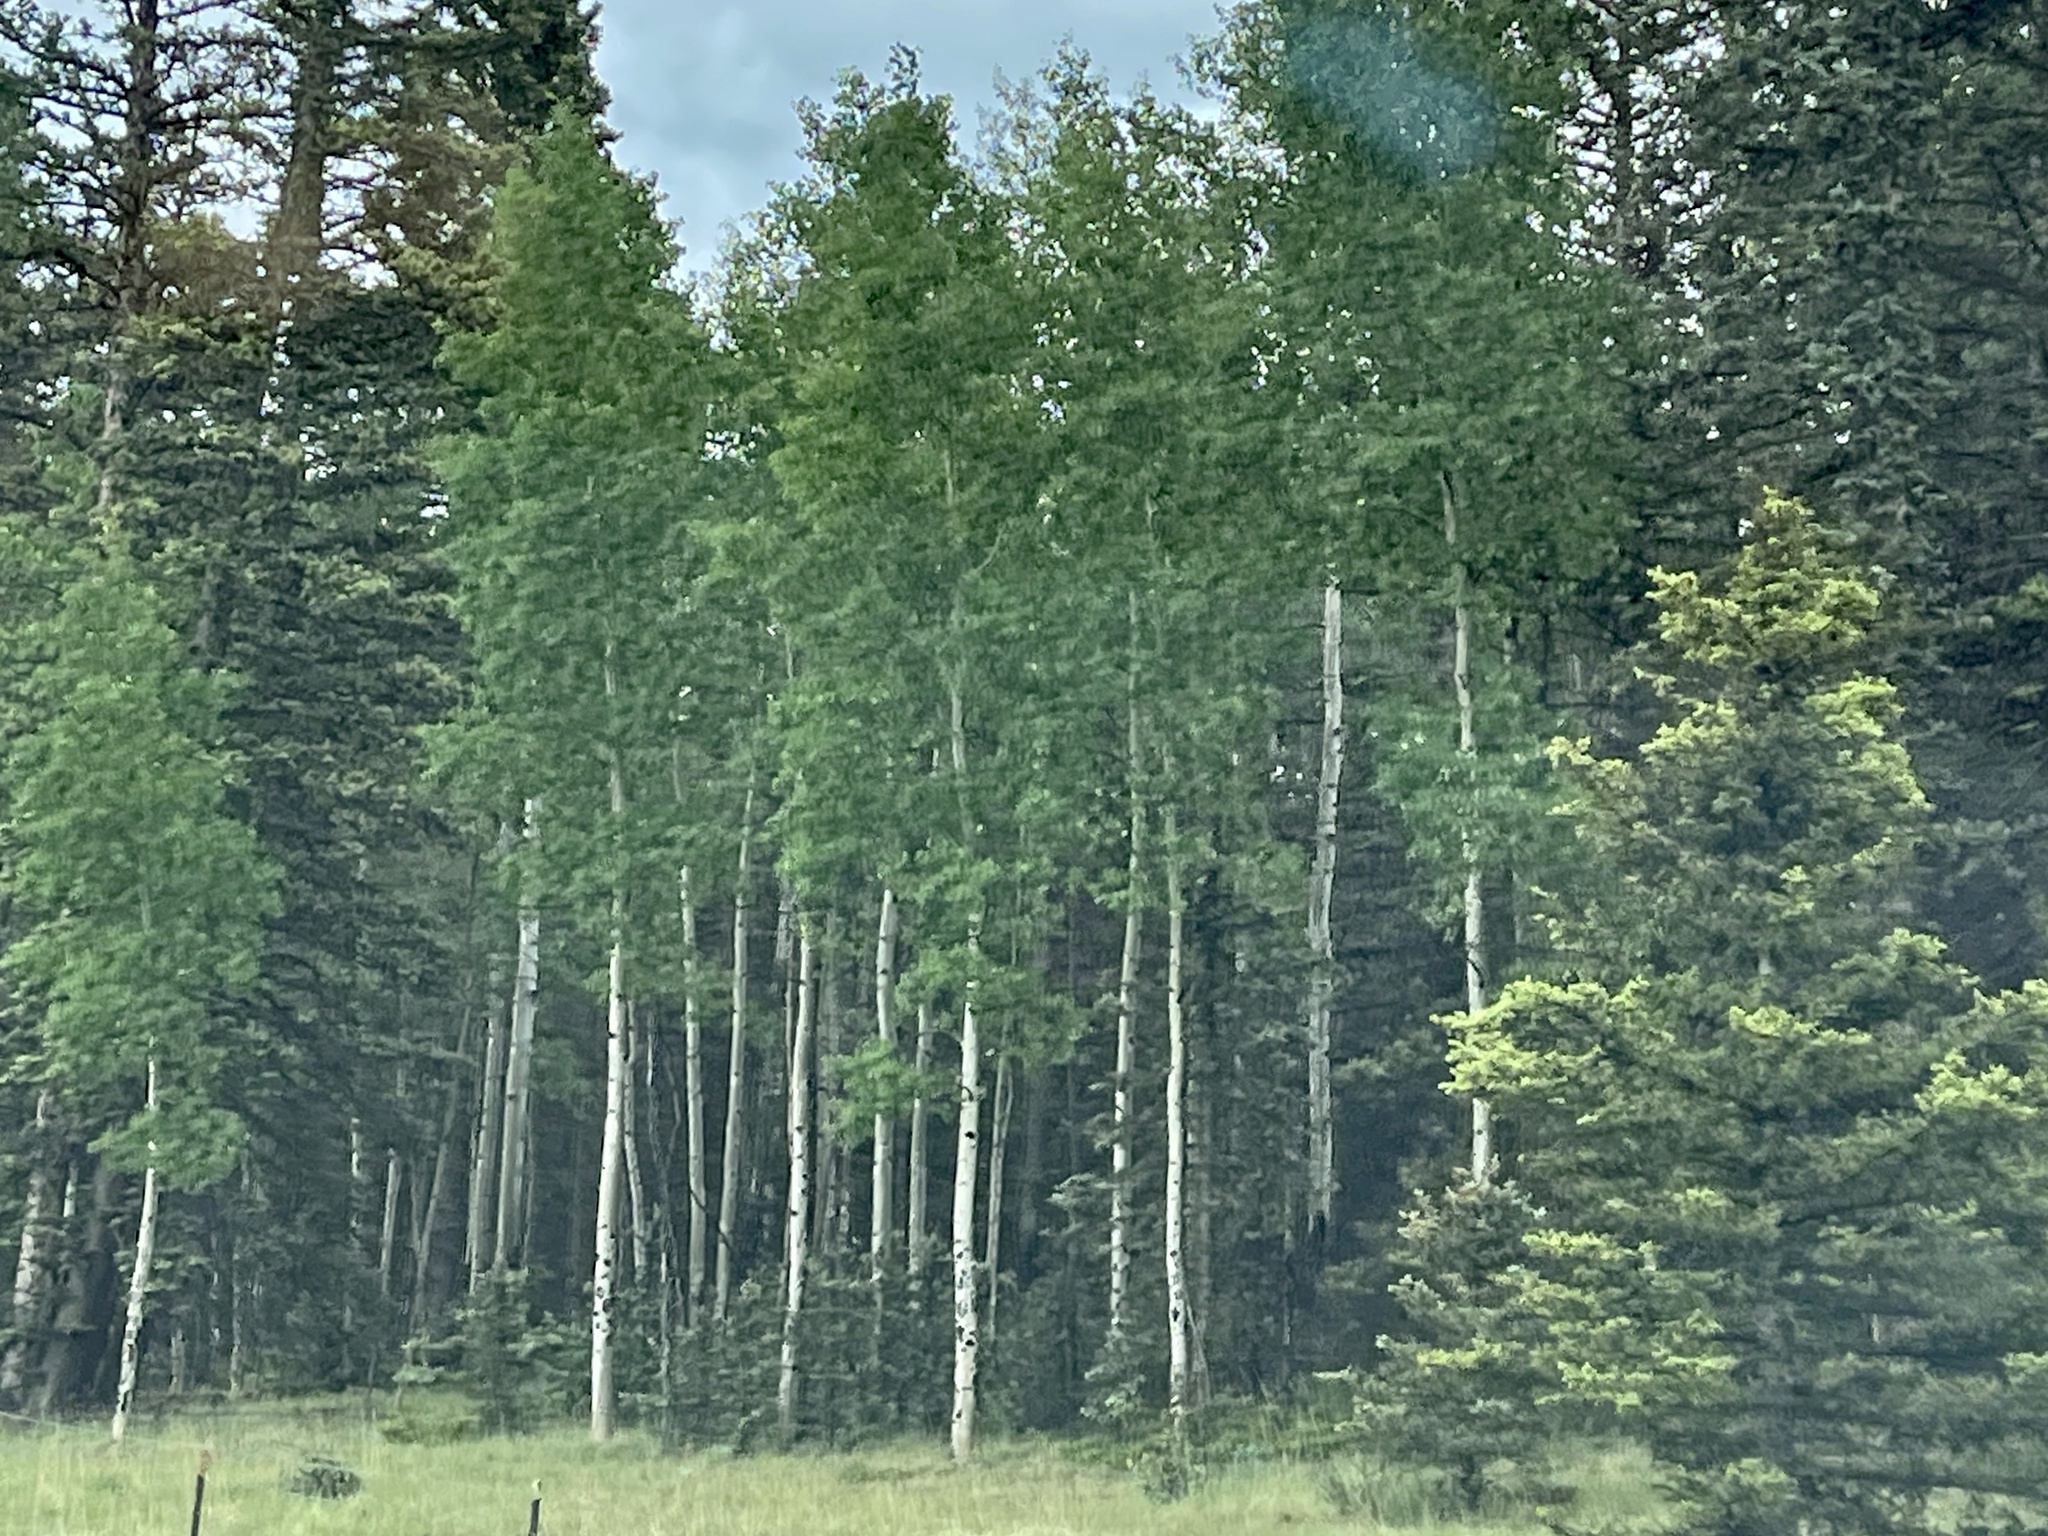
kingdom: Plantae
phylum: Tracheophyta
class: Magnoliopsida
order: Malpighiales
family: Salicaceae
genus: Populus
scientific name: Populus tremuloides
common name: Quaking aspen
